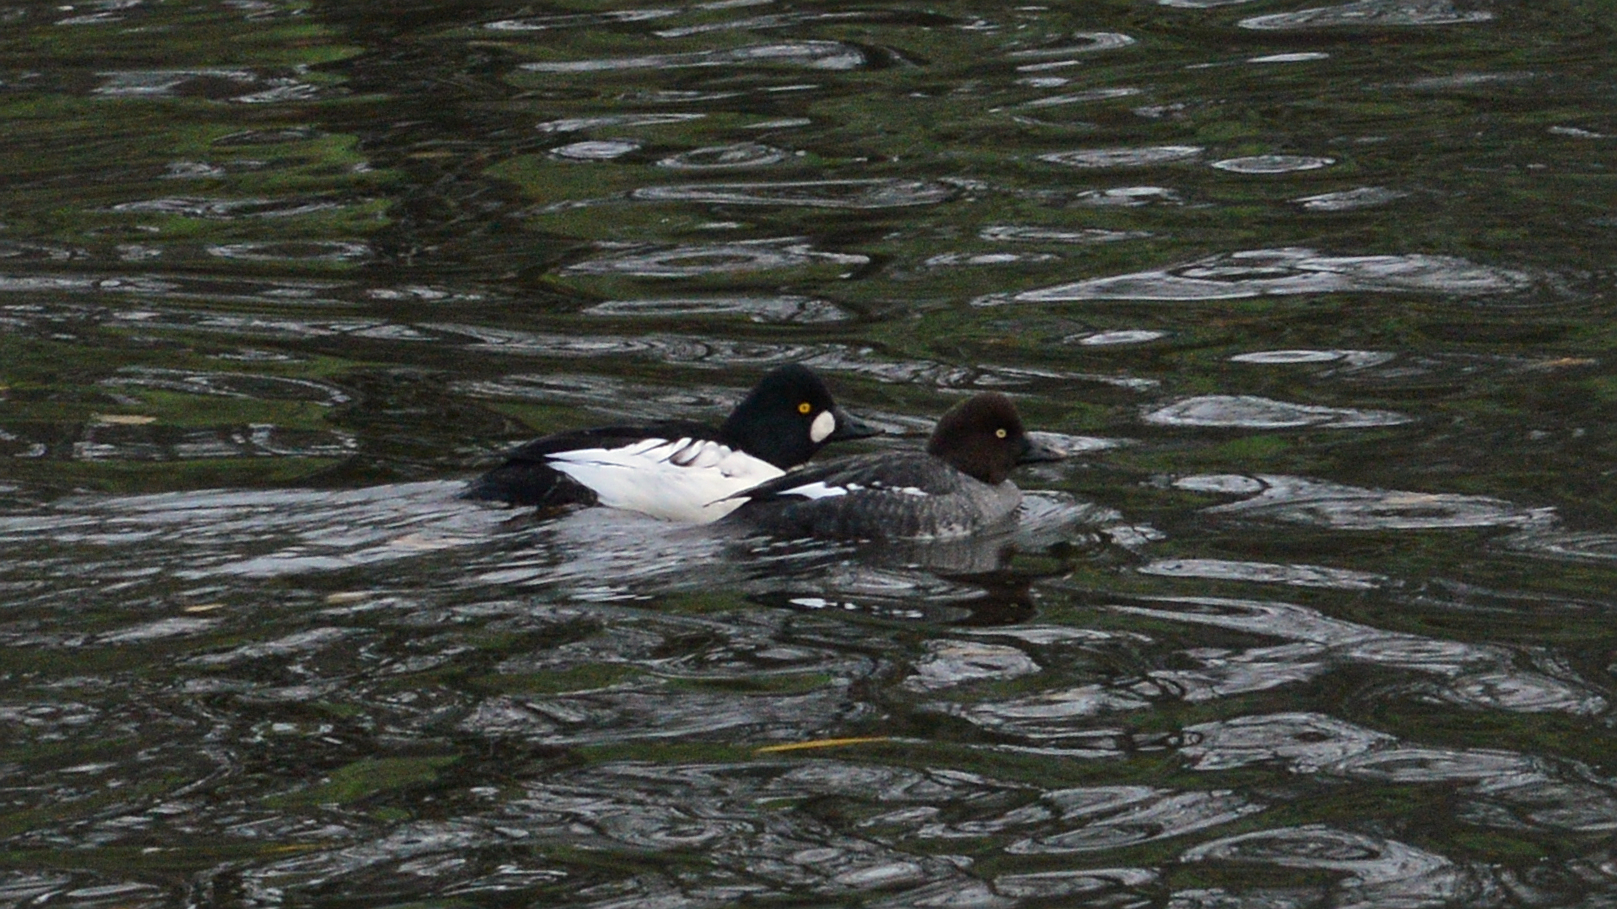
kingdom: Animalia
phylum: Chordata
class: Aves
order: Anseriformes
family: Anatidae
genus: Bucephala
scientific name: Bucephala clangula
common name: Common goldeneye
